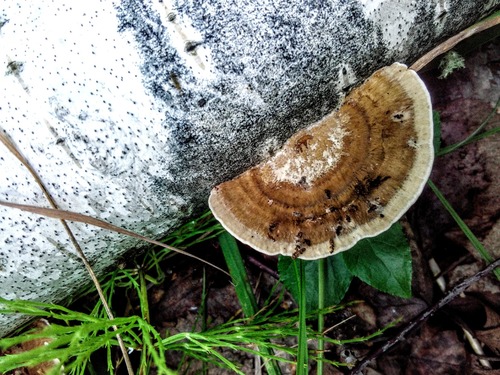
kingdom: Fungi
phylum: Basidiomycota
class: Agaricomycetes
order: Polyporales
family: Polyporaceae
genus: Daedaleopsis
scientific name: Daedaleopsis
